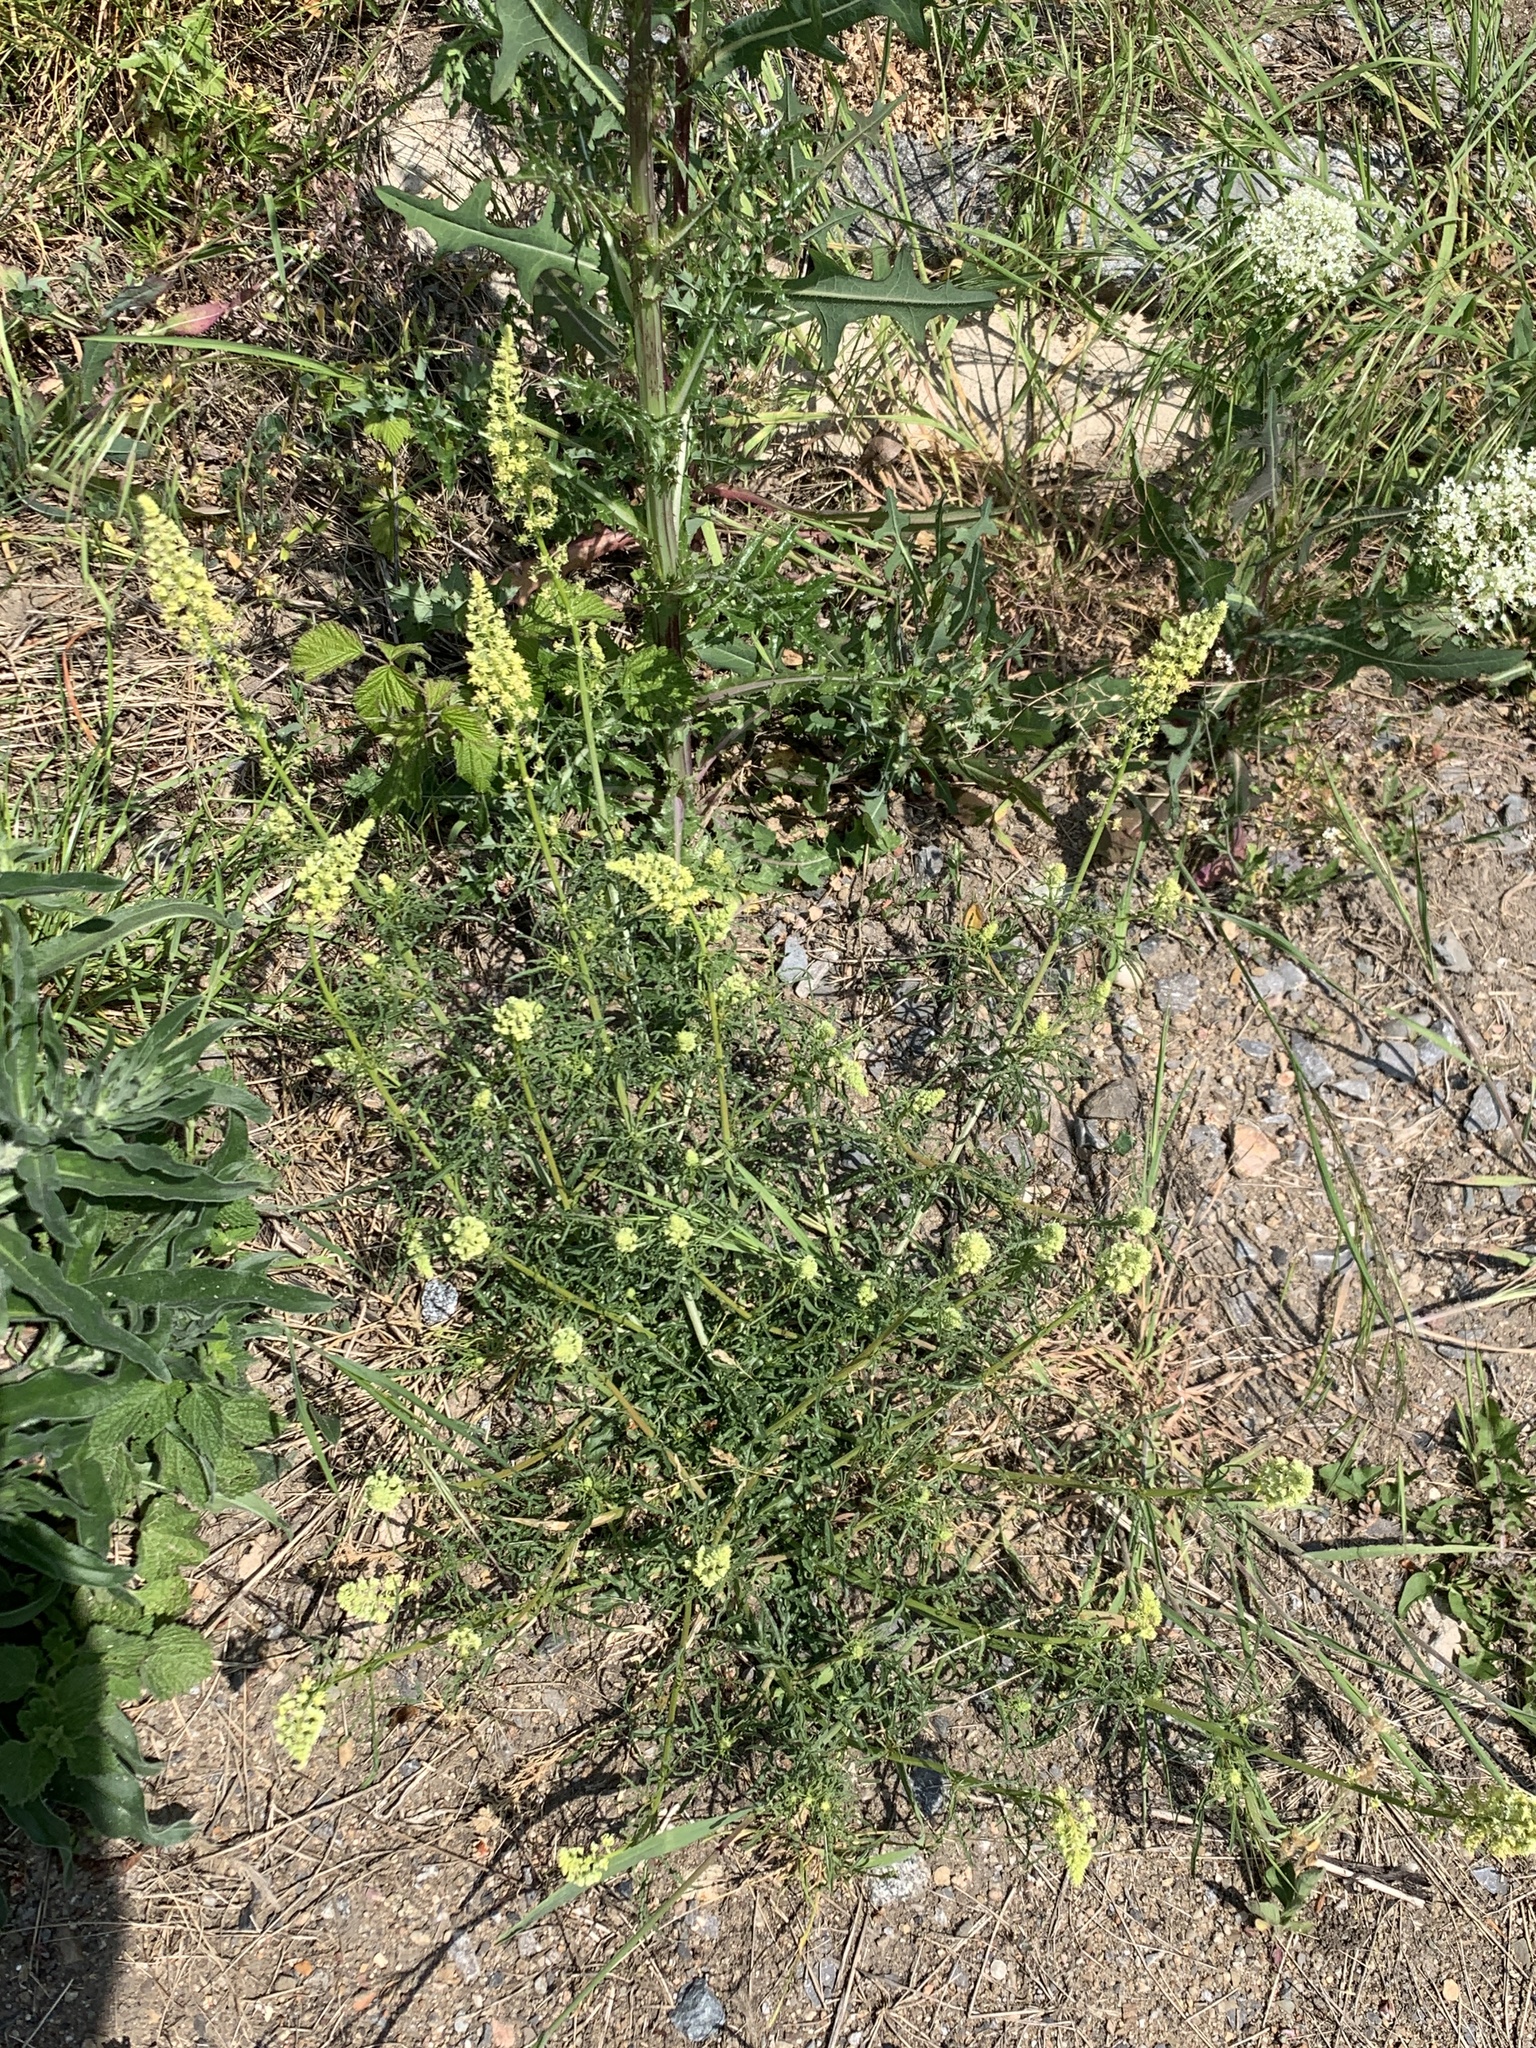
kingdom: Plantae
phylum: Tracheophyta
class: Magnoliopsida
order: Brassicales
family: Resedaceae
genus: Reseda
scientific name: Reseda lutea
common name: Wild mignonette
